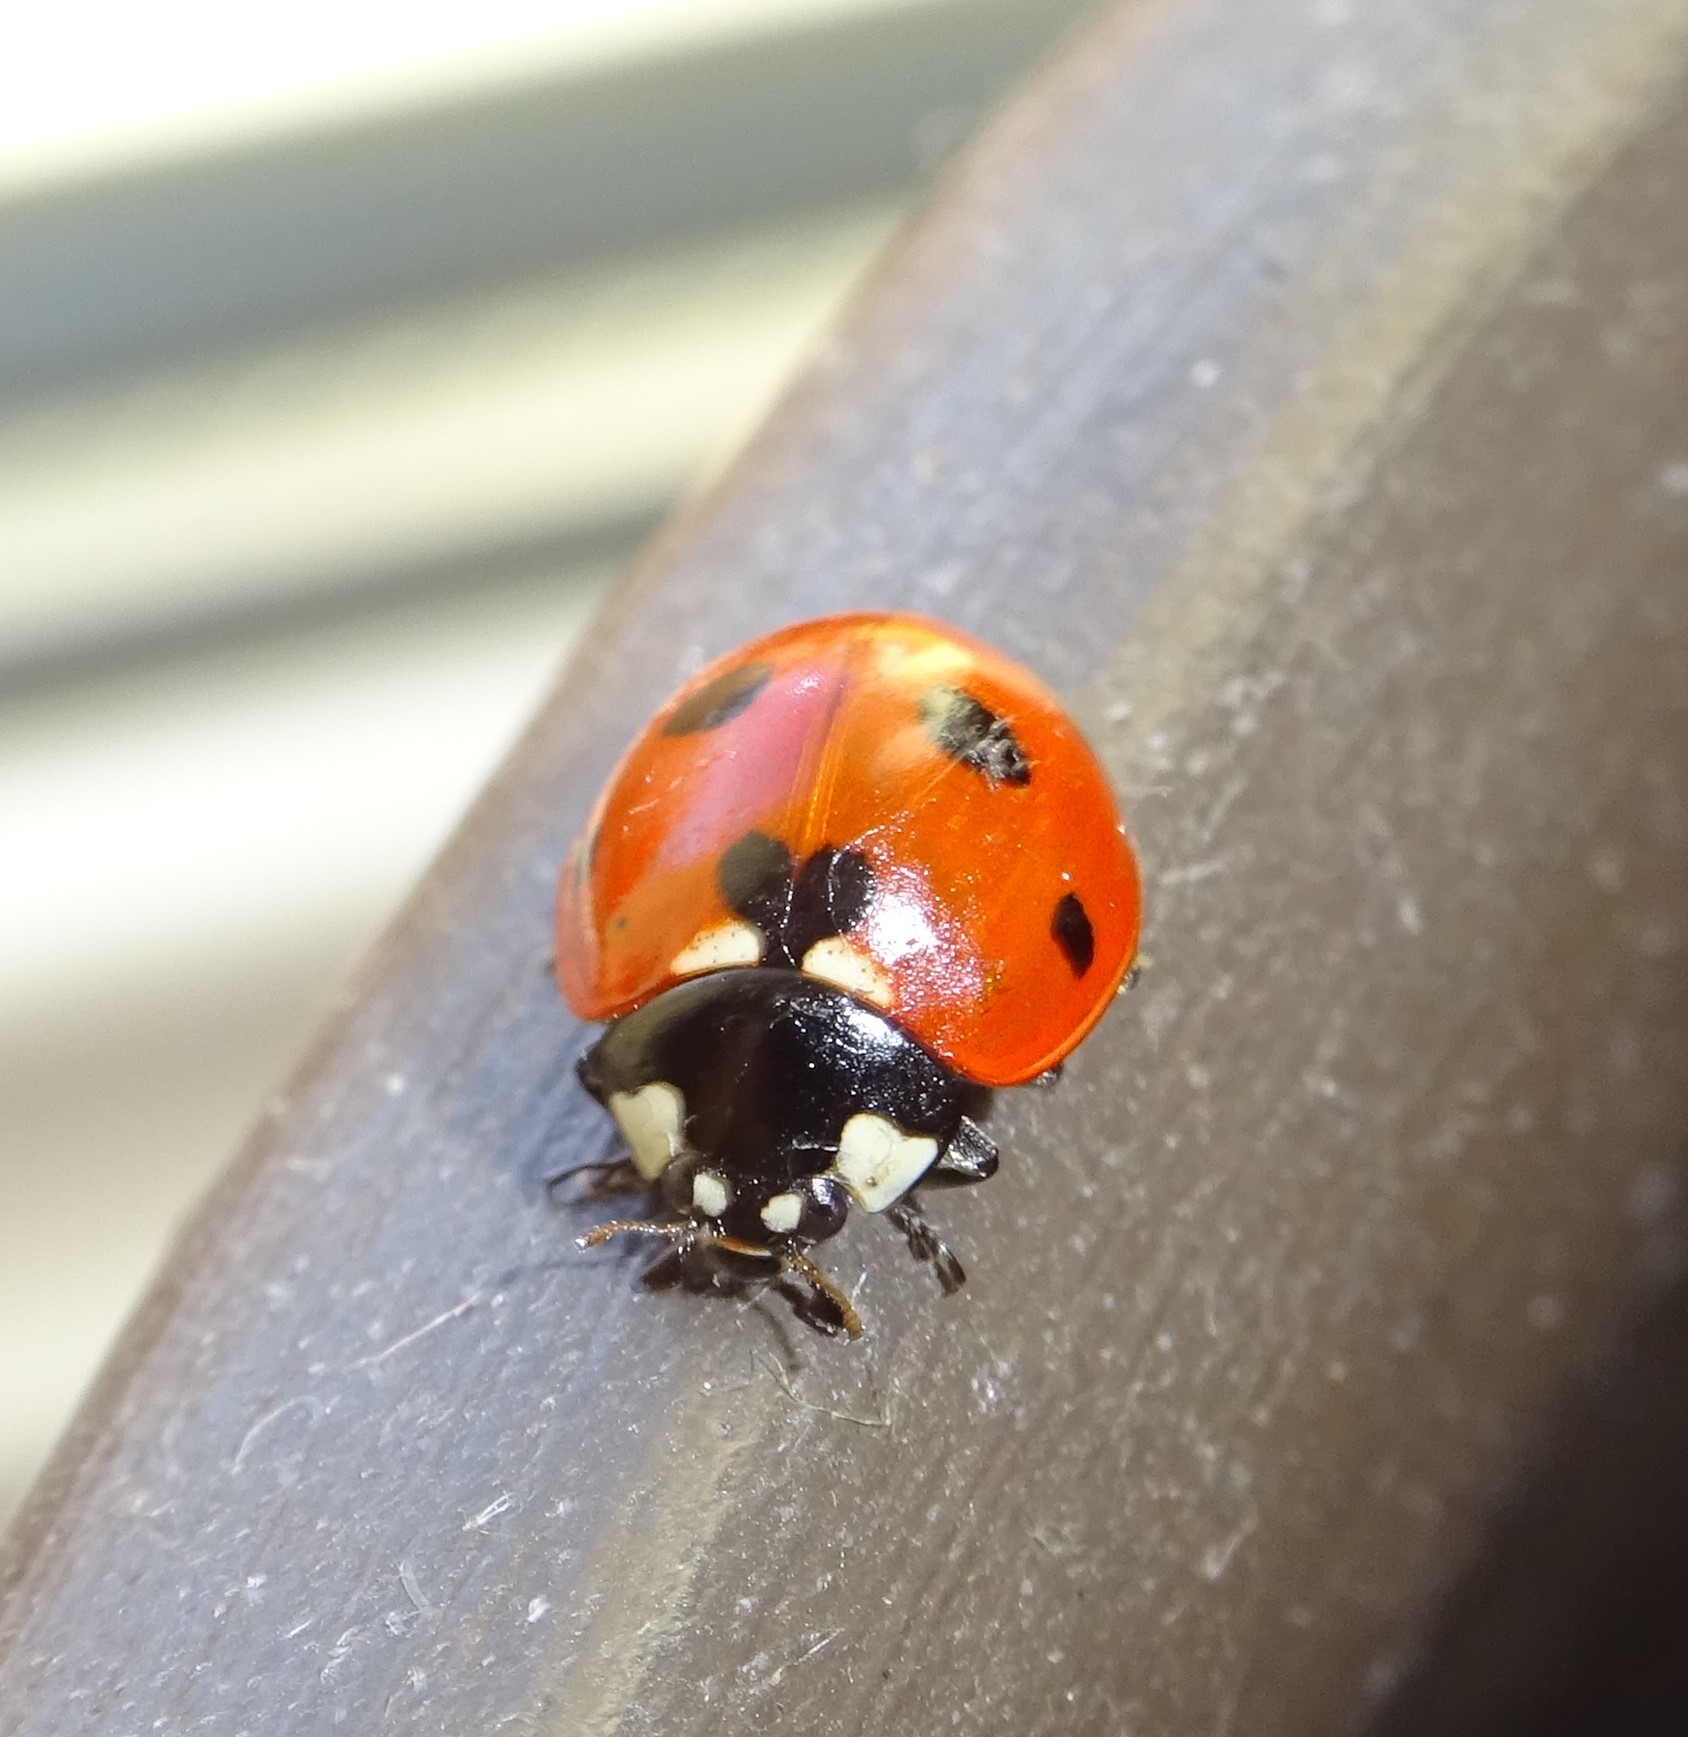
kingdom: Animalia
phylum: Arthropoda
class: Insecta
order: Coleoptera
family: Coccinellidae
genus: Coccinella
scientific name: Coccinella septempunctata
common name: Sevenspotted lady beetle
